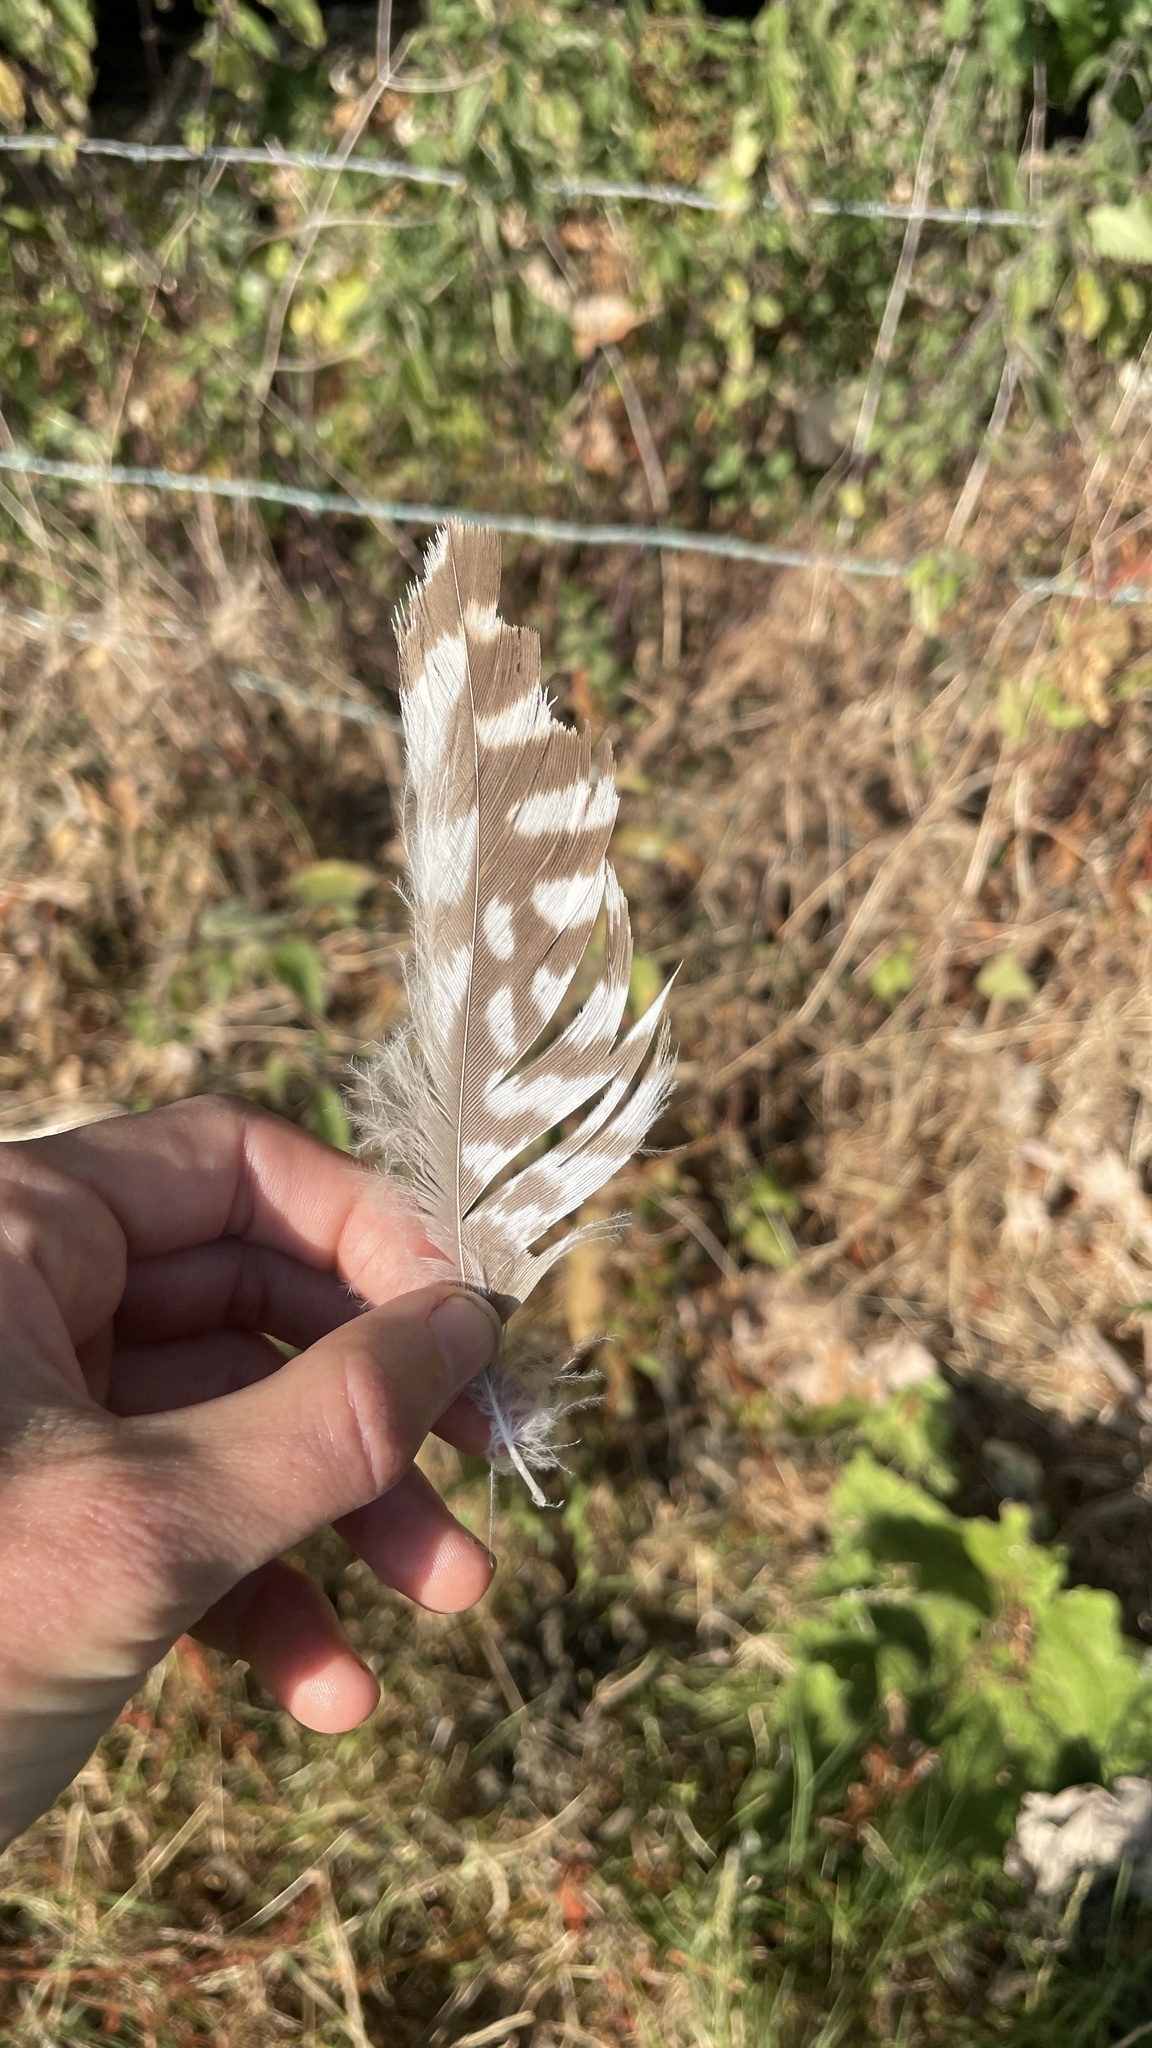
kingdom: Animalia
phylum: Chordata
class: Aves
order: Accipitriformes
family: Accipitridae
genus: Buteo
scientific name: Buteo buteo
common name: Common buzzard
